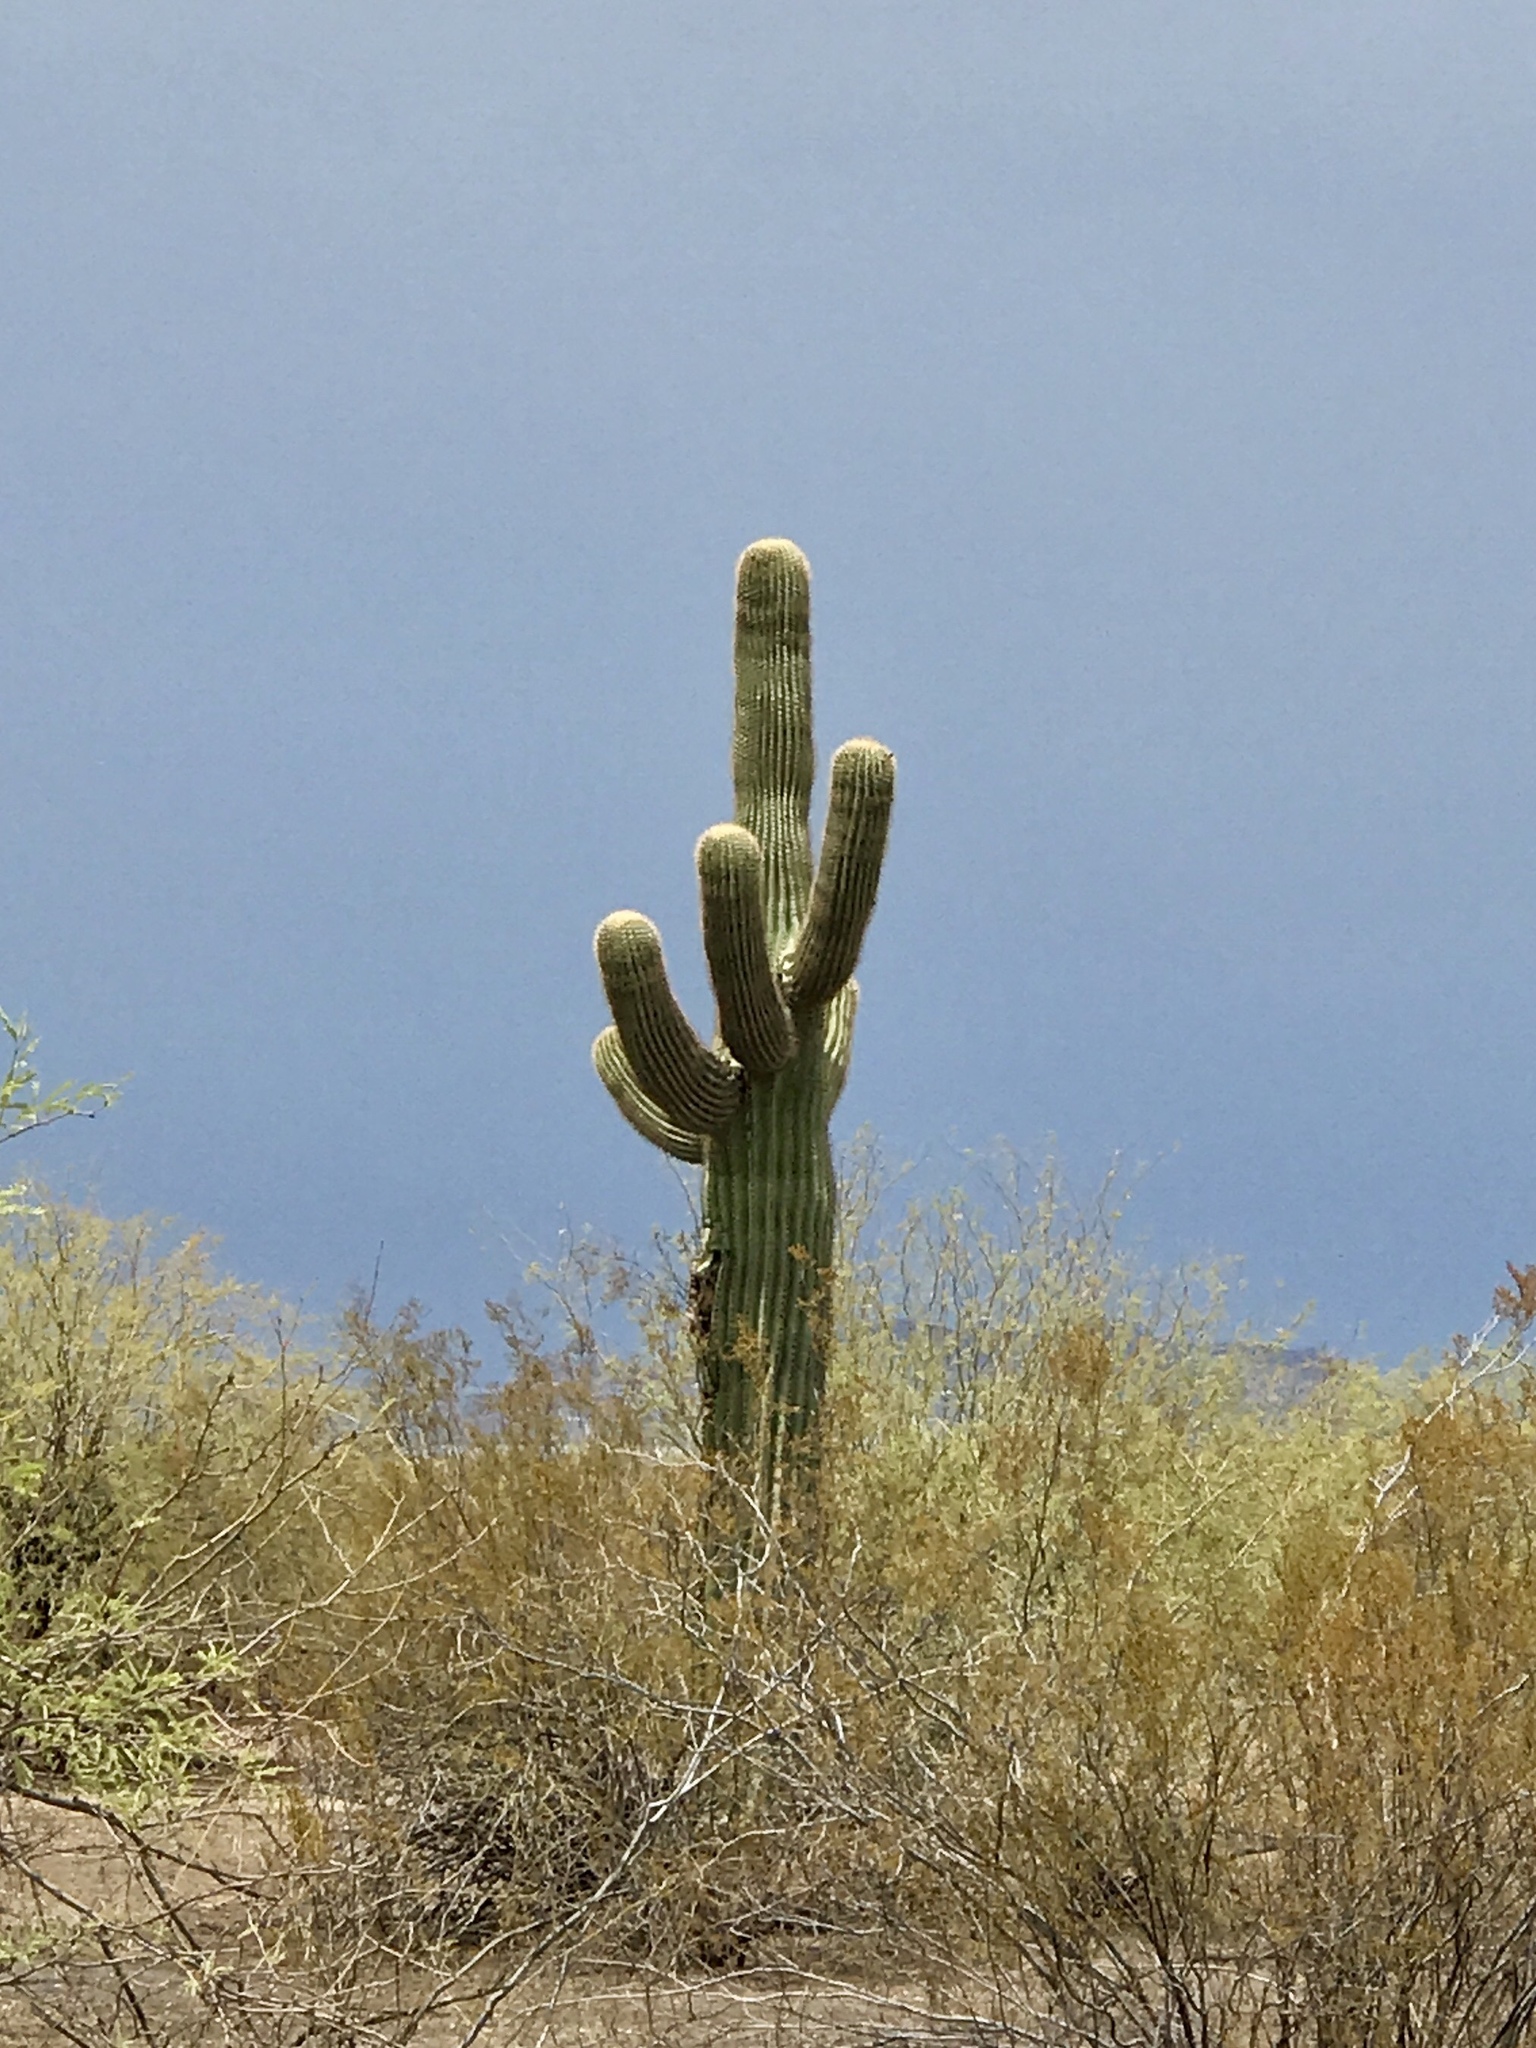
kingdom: Plantae
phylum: Tracheophyta
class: Magnoliopsida
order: Caryophyllales
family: Cactaceae
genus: Carnegiea
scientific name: Carnegiea gigantea
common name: Saguaro
